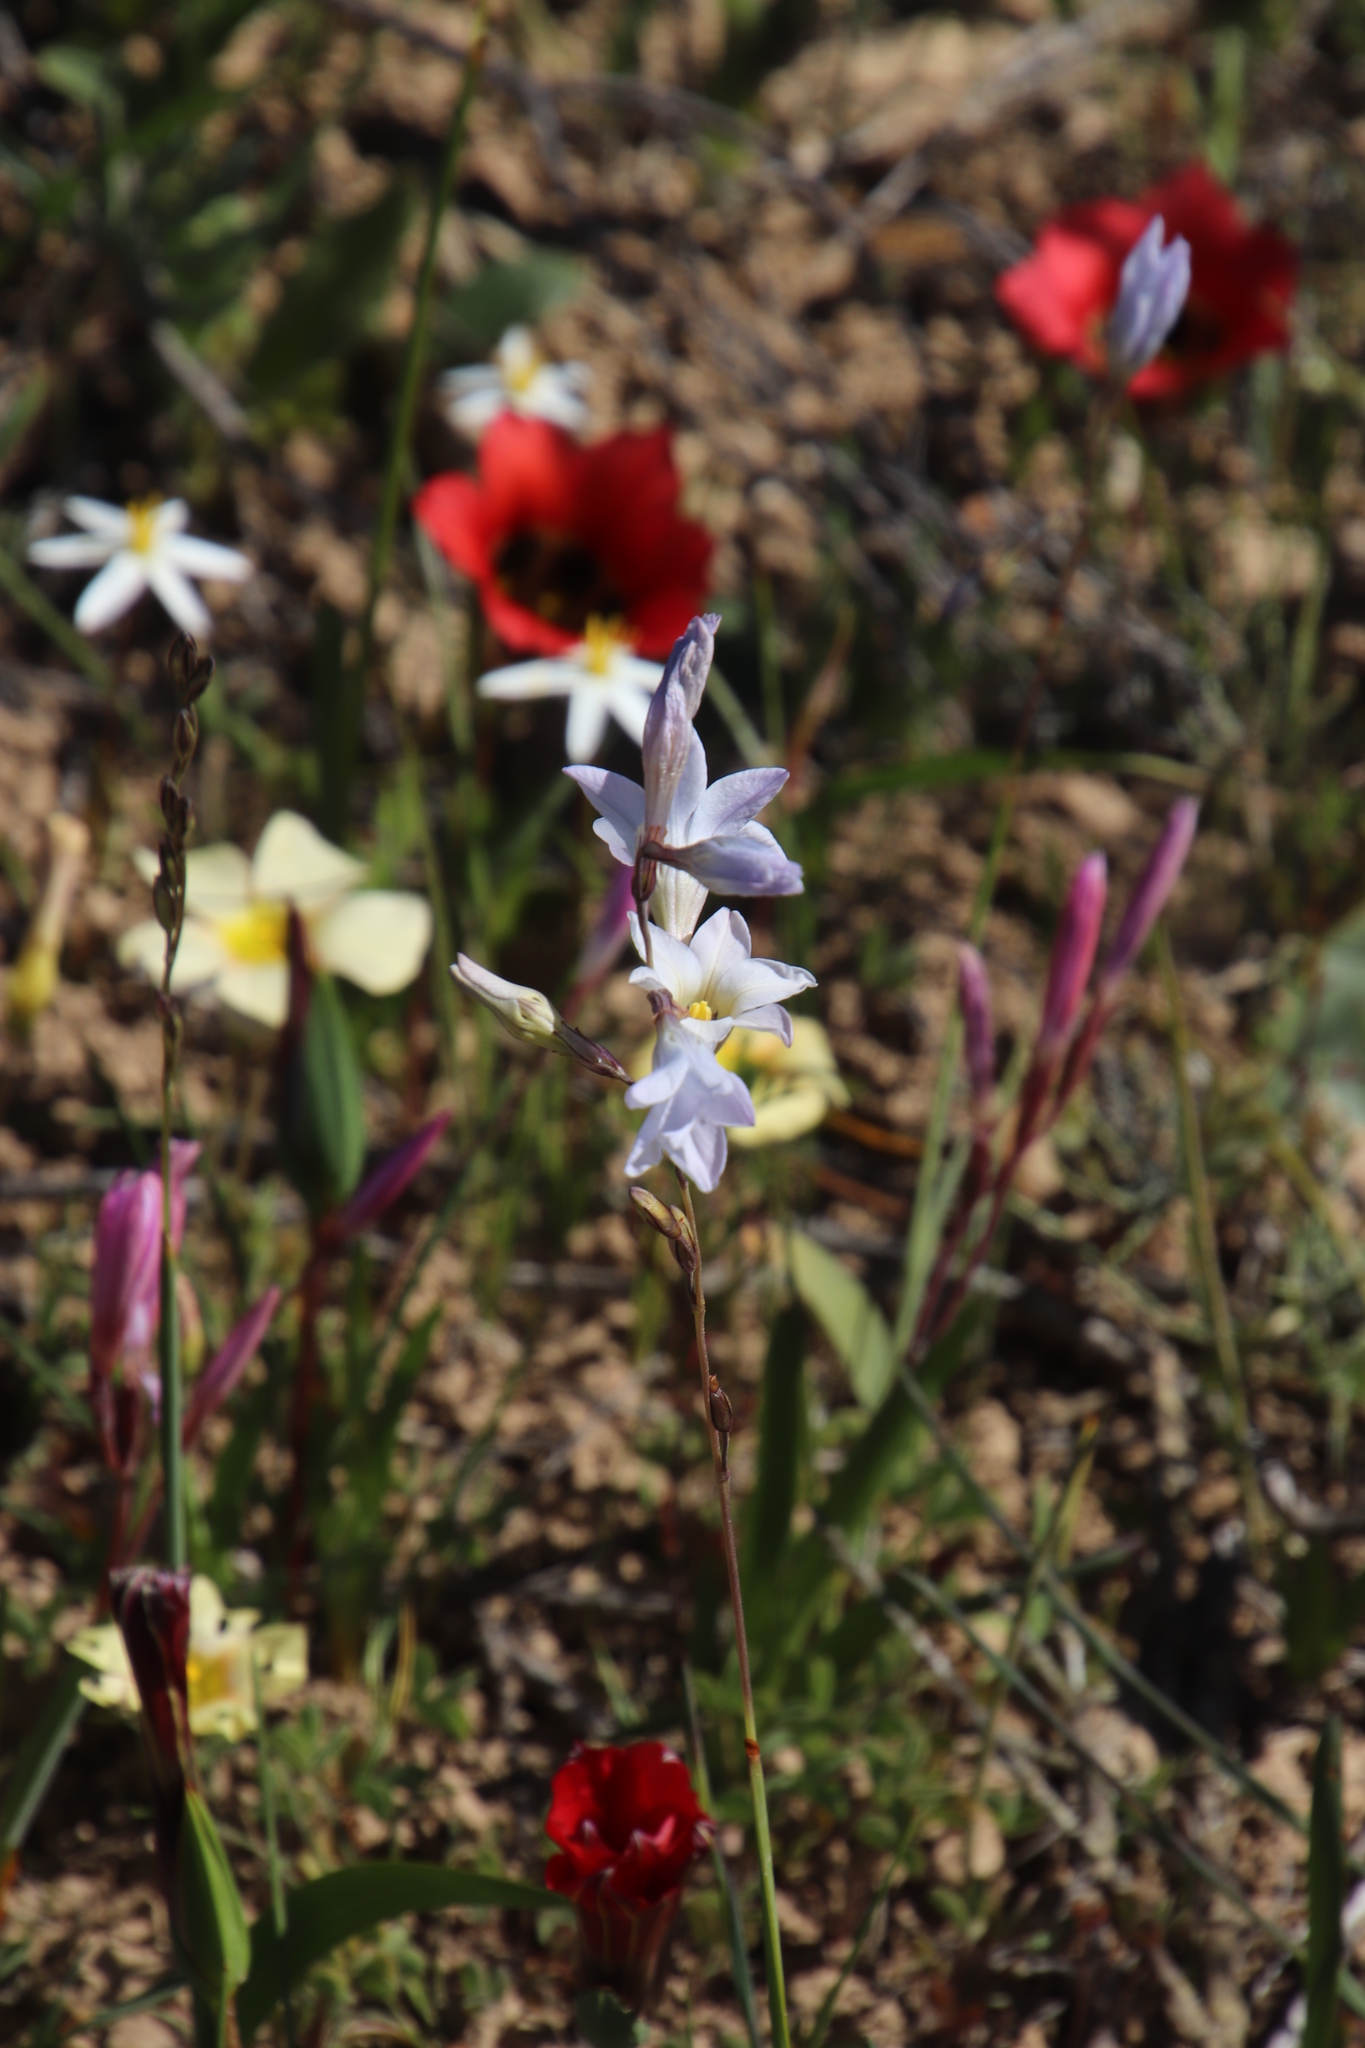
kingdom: Plantae
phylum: Tracheophyta
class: Liliopsida
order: Asparagales
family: Iridaceae
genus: Ixia
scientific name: Ixia rapunculoides
